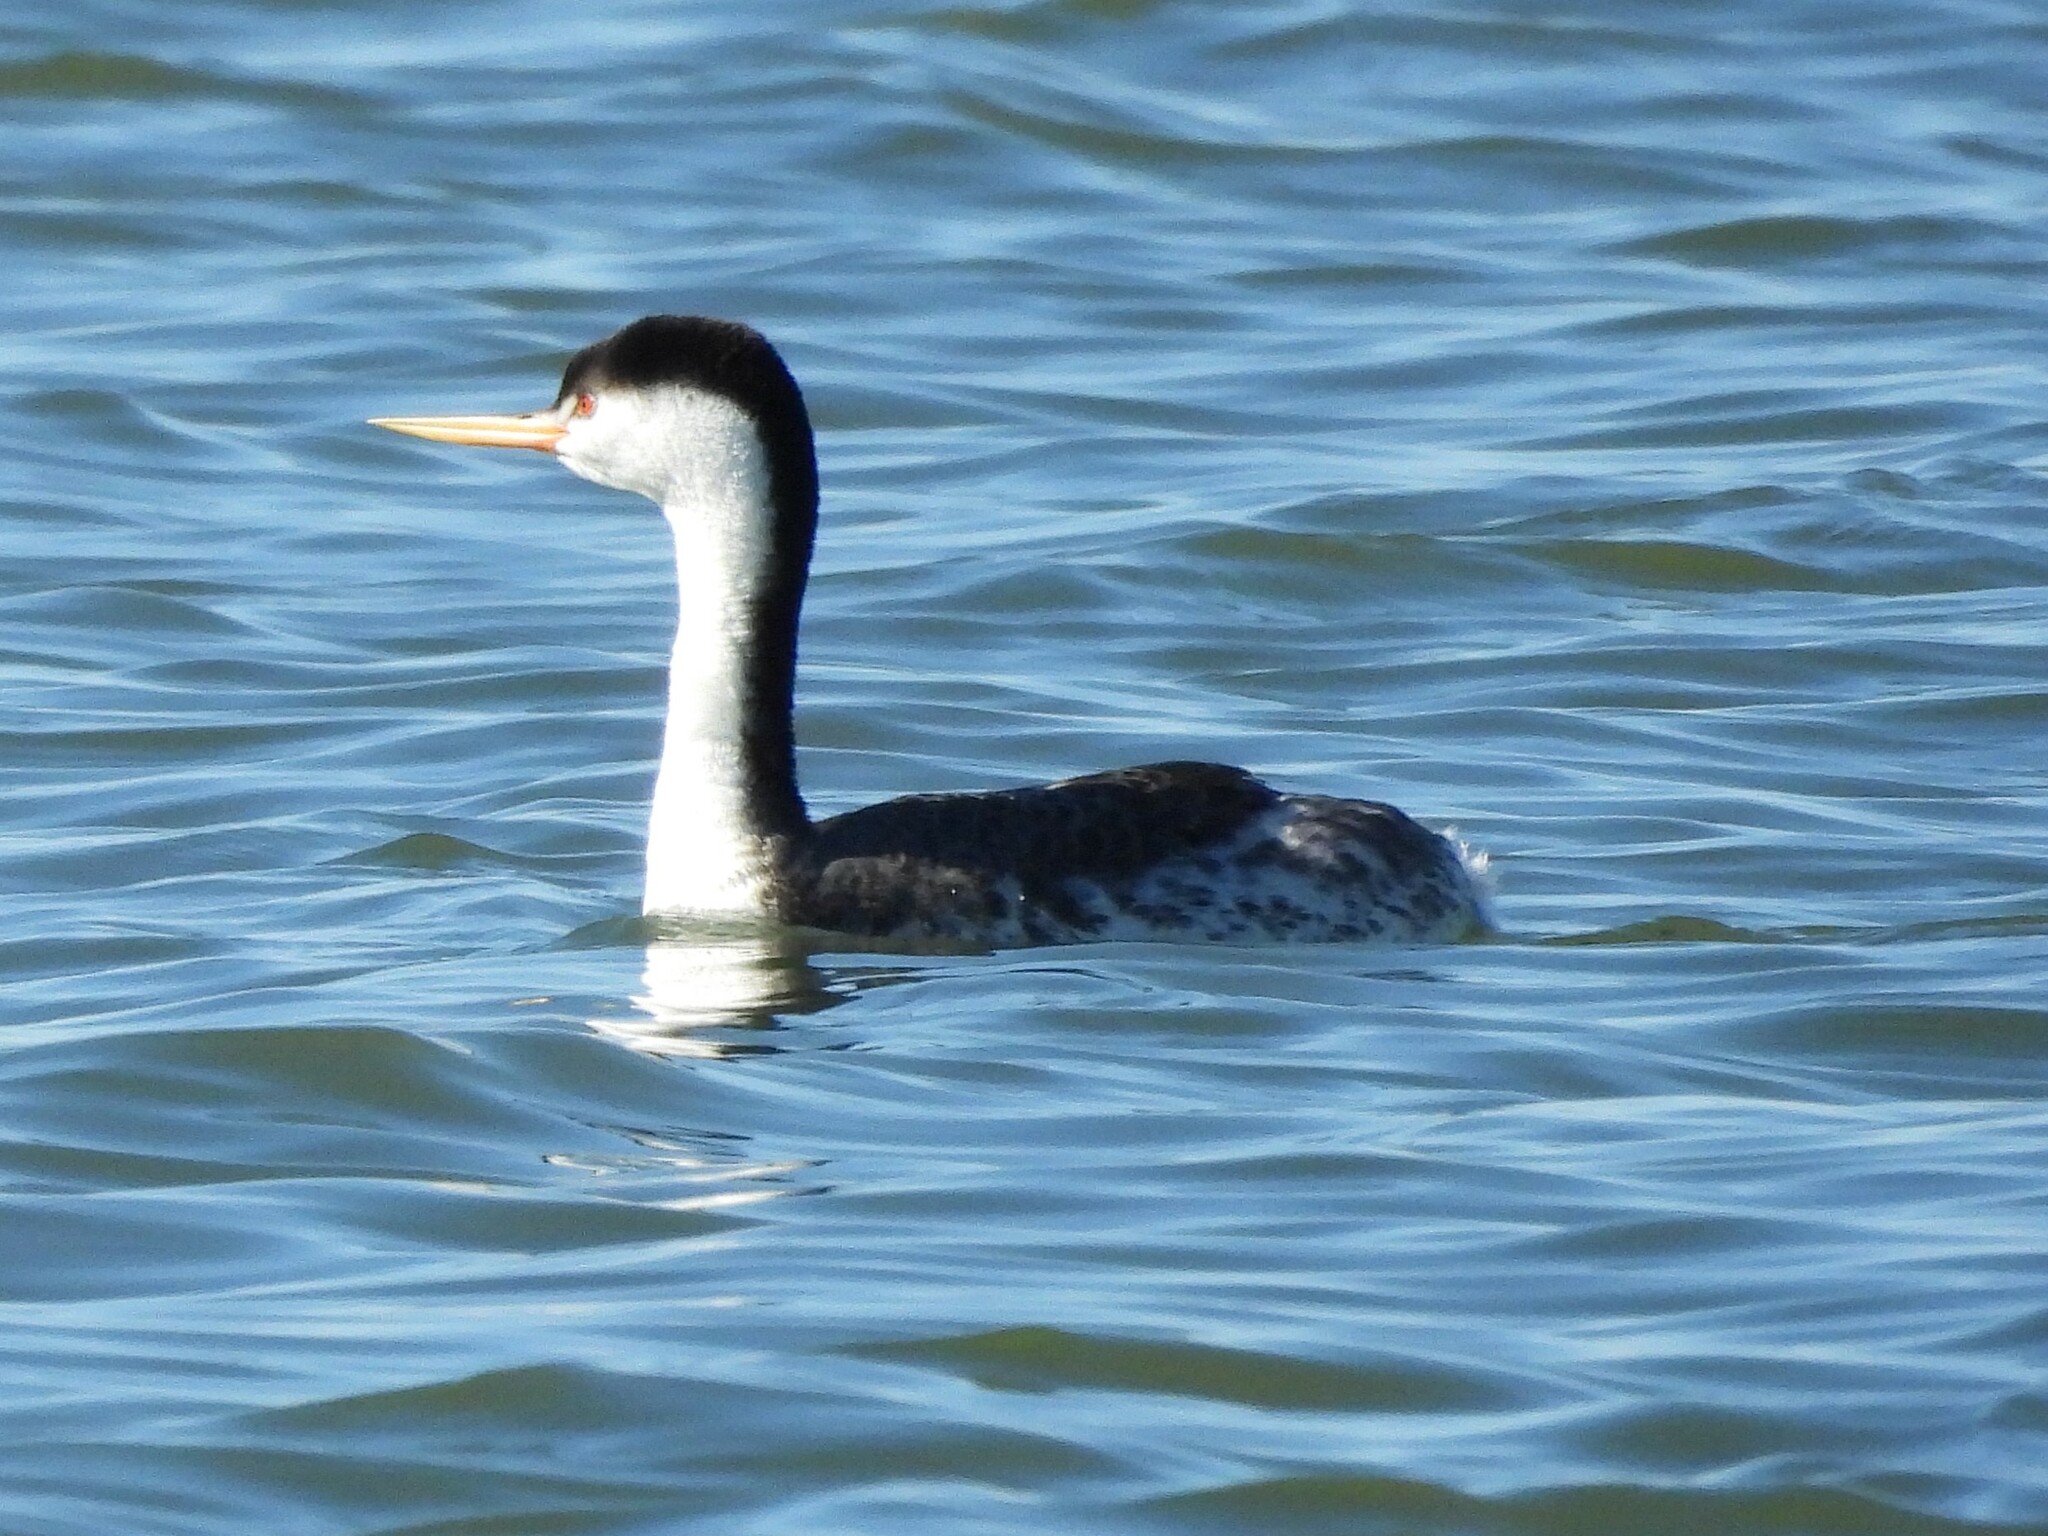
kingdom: Animalia
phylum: Chordata
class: Aves
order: Podicipediformes
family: Podicipedidae
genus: Aechmophorus
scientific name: Aechmophorus clarkii
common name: Clark's grebe
